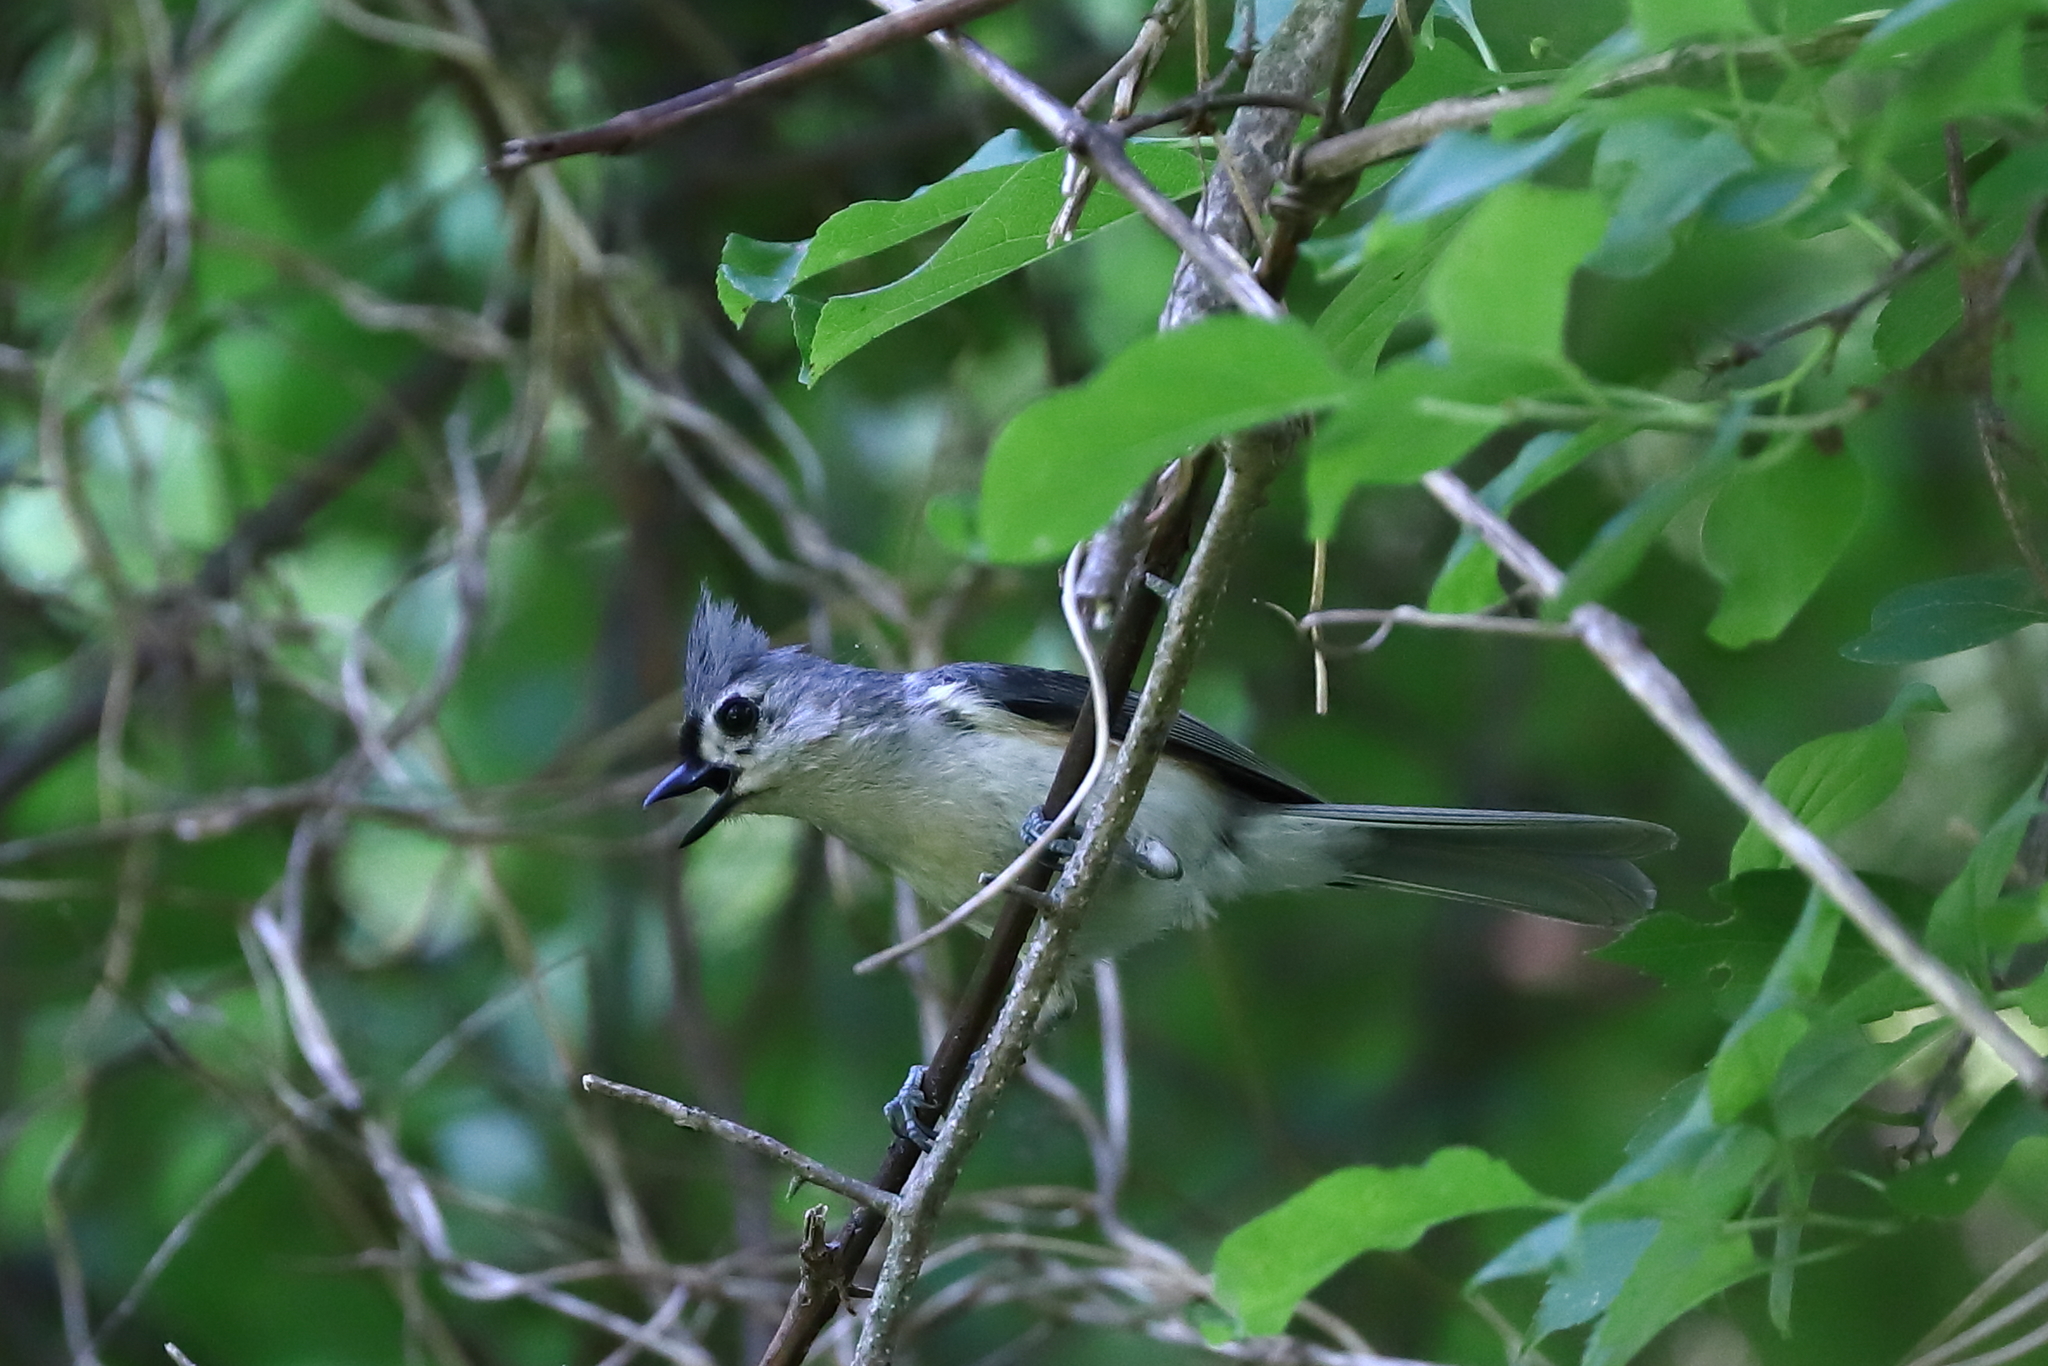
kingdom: Animalia
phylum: Chordata
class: Aves
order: Passeriformes
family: Paridae
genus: Baeolophus
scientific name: Baeolophus bicolor
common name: Tufted titmouse
